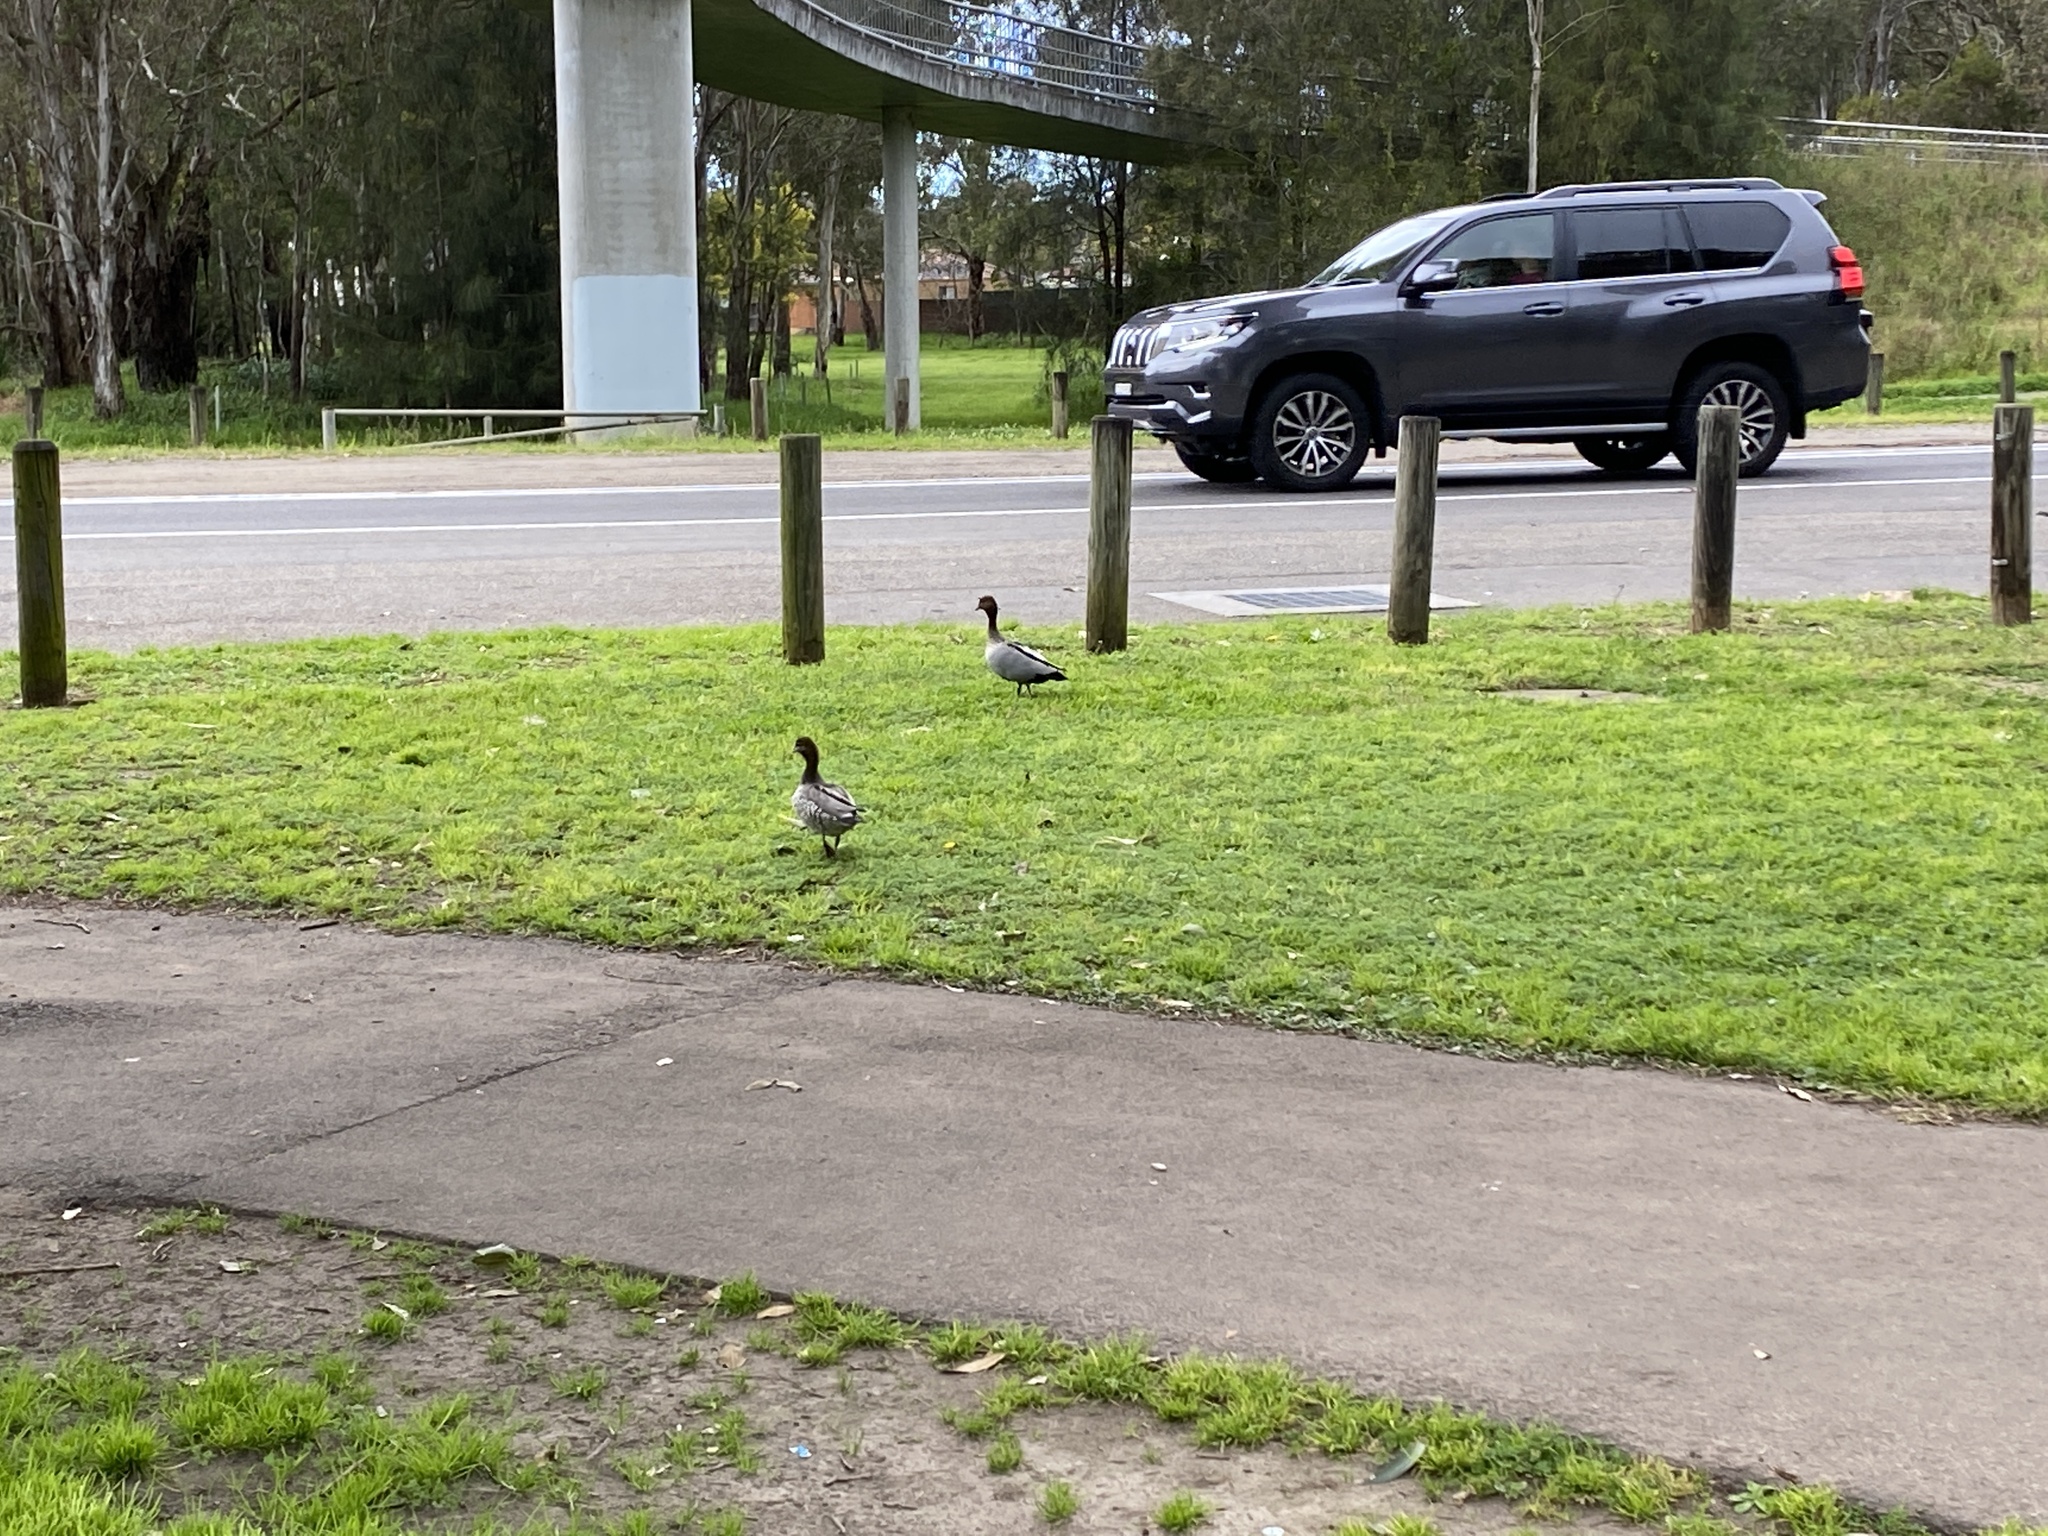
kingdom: Animalia
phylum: Chordata
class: Aves
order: Anseriformes
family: Anatidae
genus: Chenonetta
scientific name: Chenonetta jubata
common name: Maned duck
